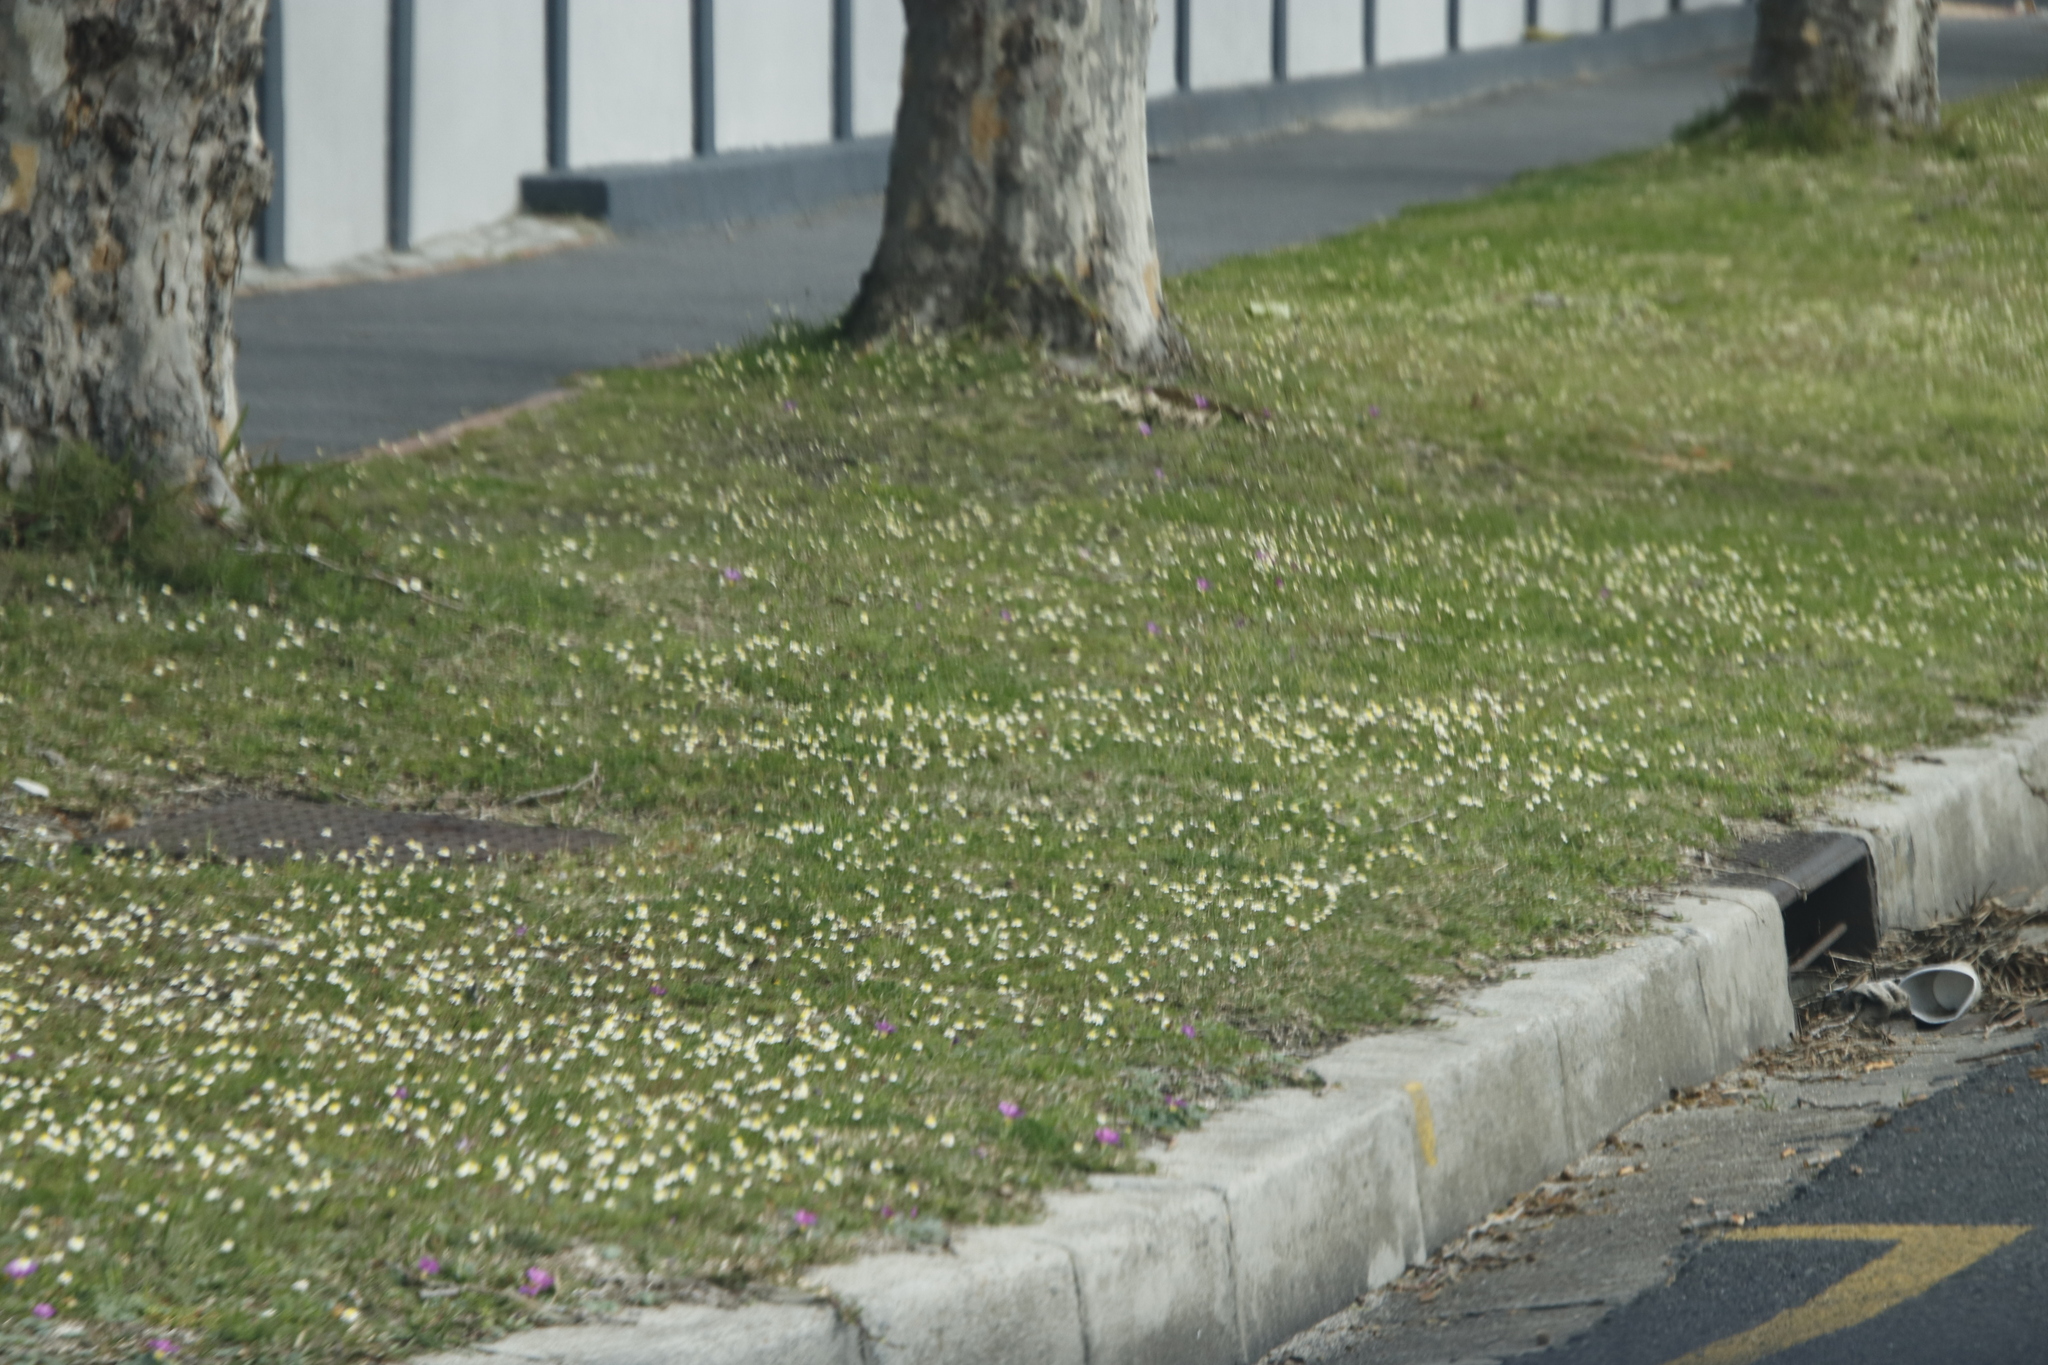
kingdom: Plantae
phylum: Tracheophyta
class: Magnoliopsida
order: Asterales
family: Asteraceae
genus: Cotula
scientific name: Cotula turbinata
